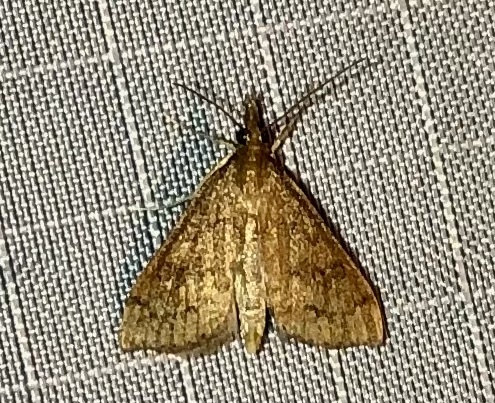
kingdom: Animalia
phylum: Arthropoda
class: Insecta
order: Lepidoptera
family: Crambidae
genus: Udea
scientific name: Udea rubigalis
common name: Celery leaftier moth
